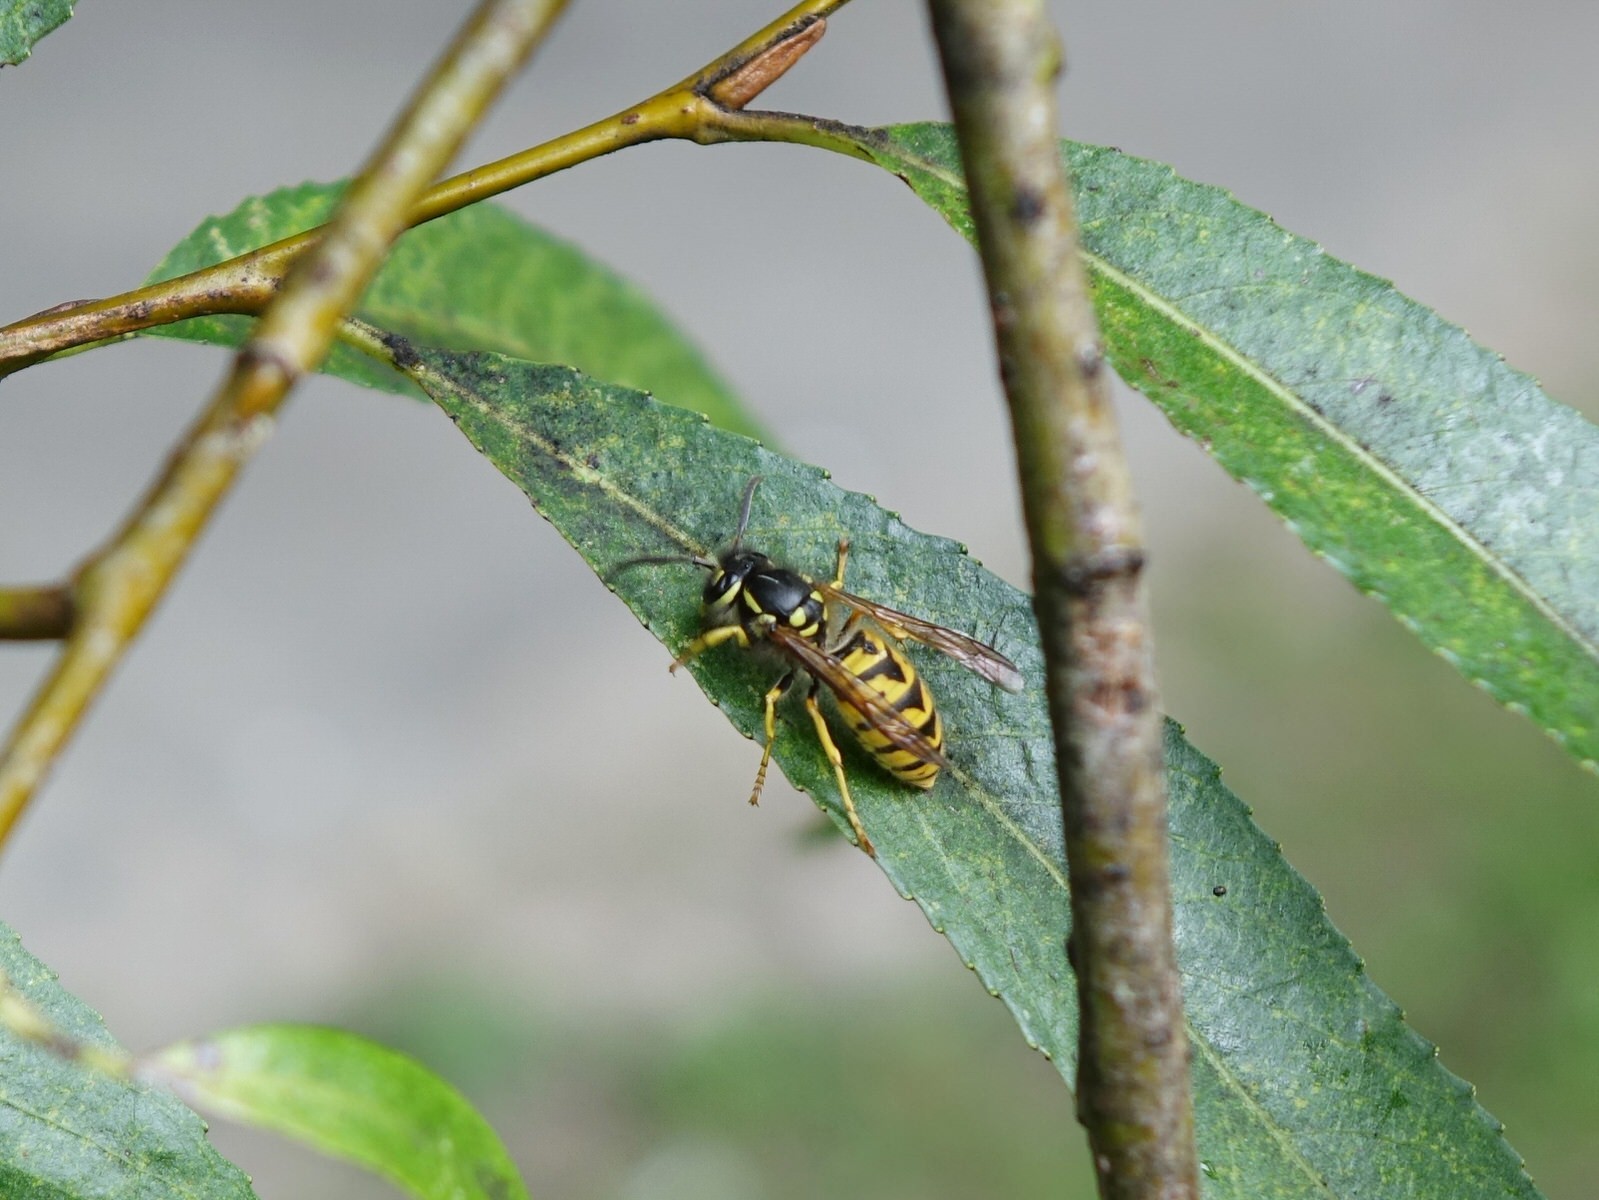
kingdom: Animalia
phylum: Arthropoda
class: Insecta
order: Hymenoptera
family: Vespidae
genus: Vespula
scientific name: Vespula germanica
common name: German wasp
